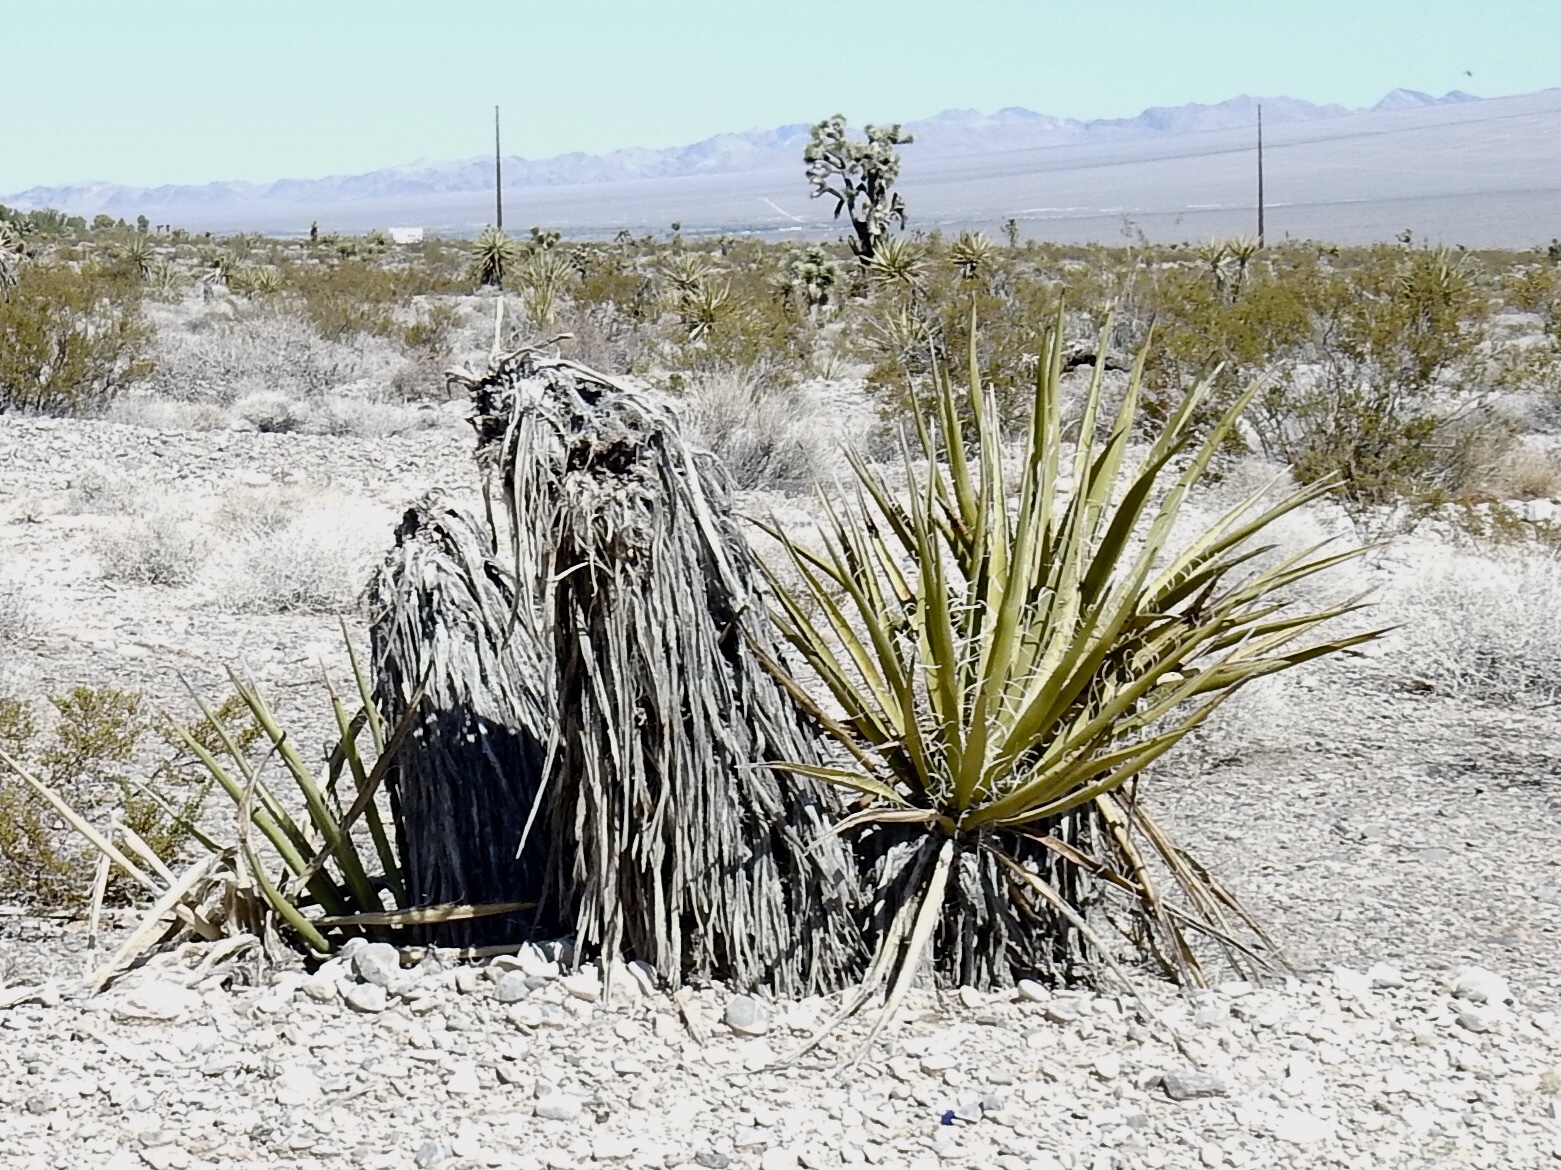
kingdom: Plantae
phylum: Tracheophyta
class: Liliopsida
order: Asparagales
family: Asparagaceae
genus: Yucca
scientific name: Yucca schidigera
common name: Mojave yucca
